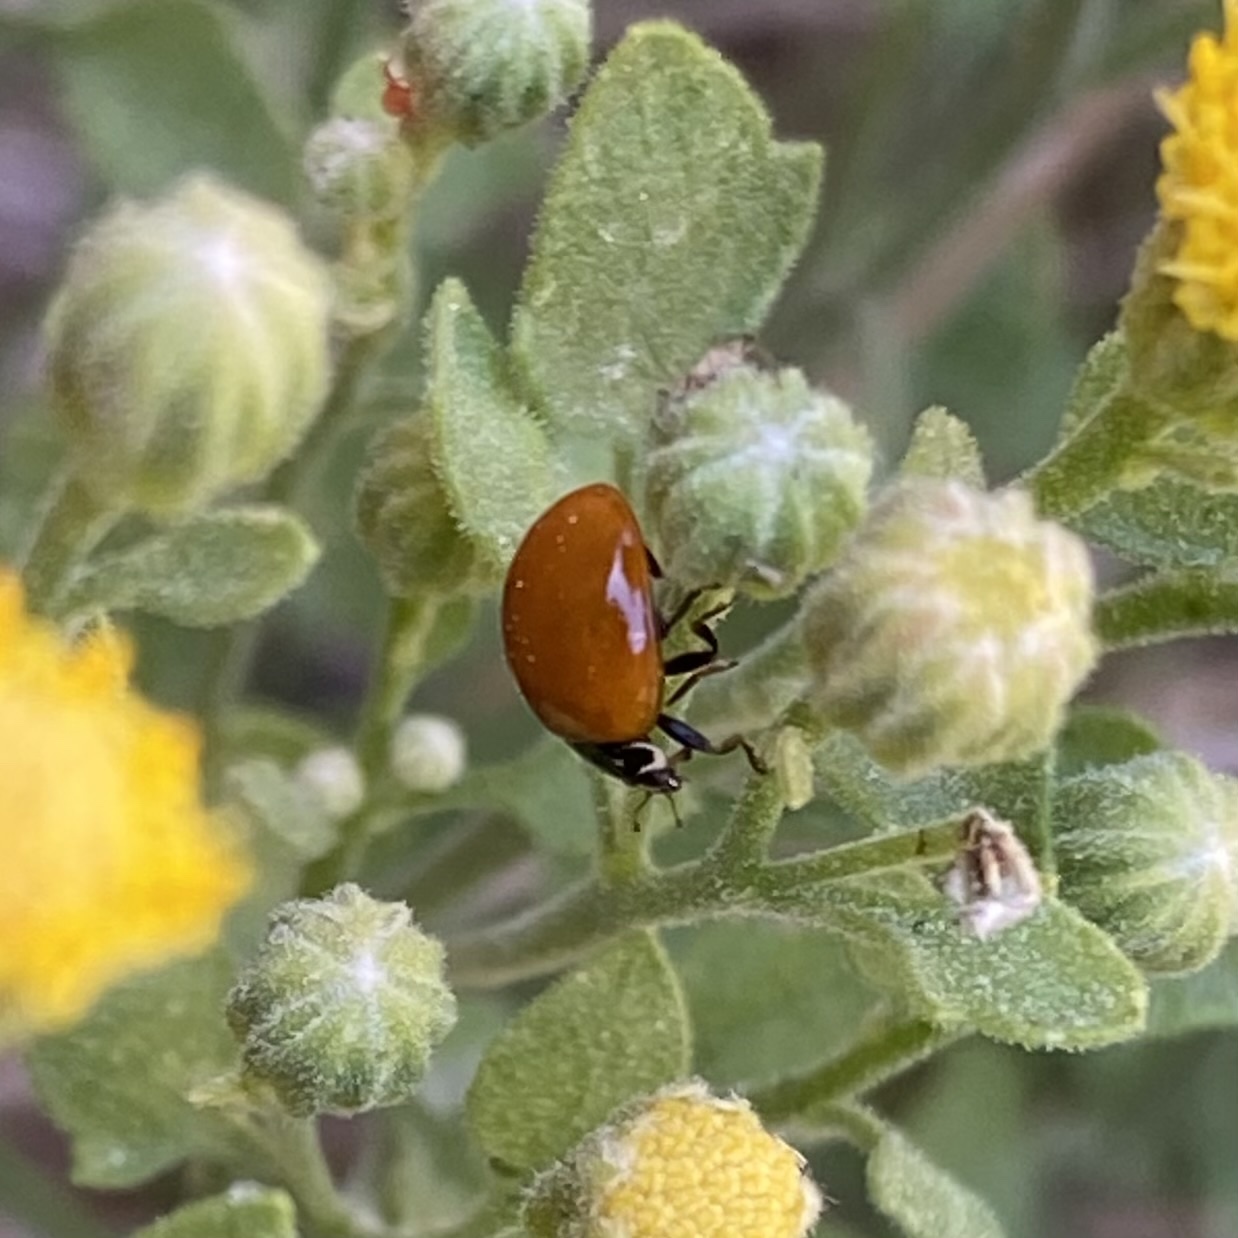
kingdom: Animalia
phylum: Arthropoda
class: Insecta
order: Coleoptera
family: Coccinellidae
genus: Cycloneda
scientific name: Cycloneda sanguinea
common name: Ladybird beetle
